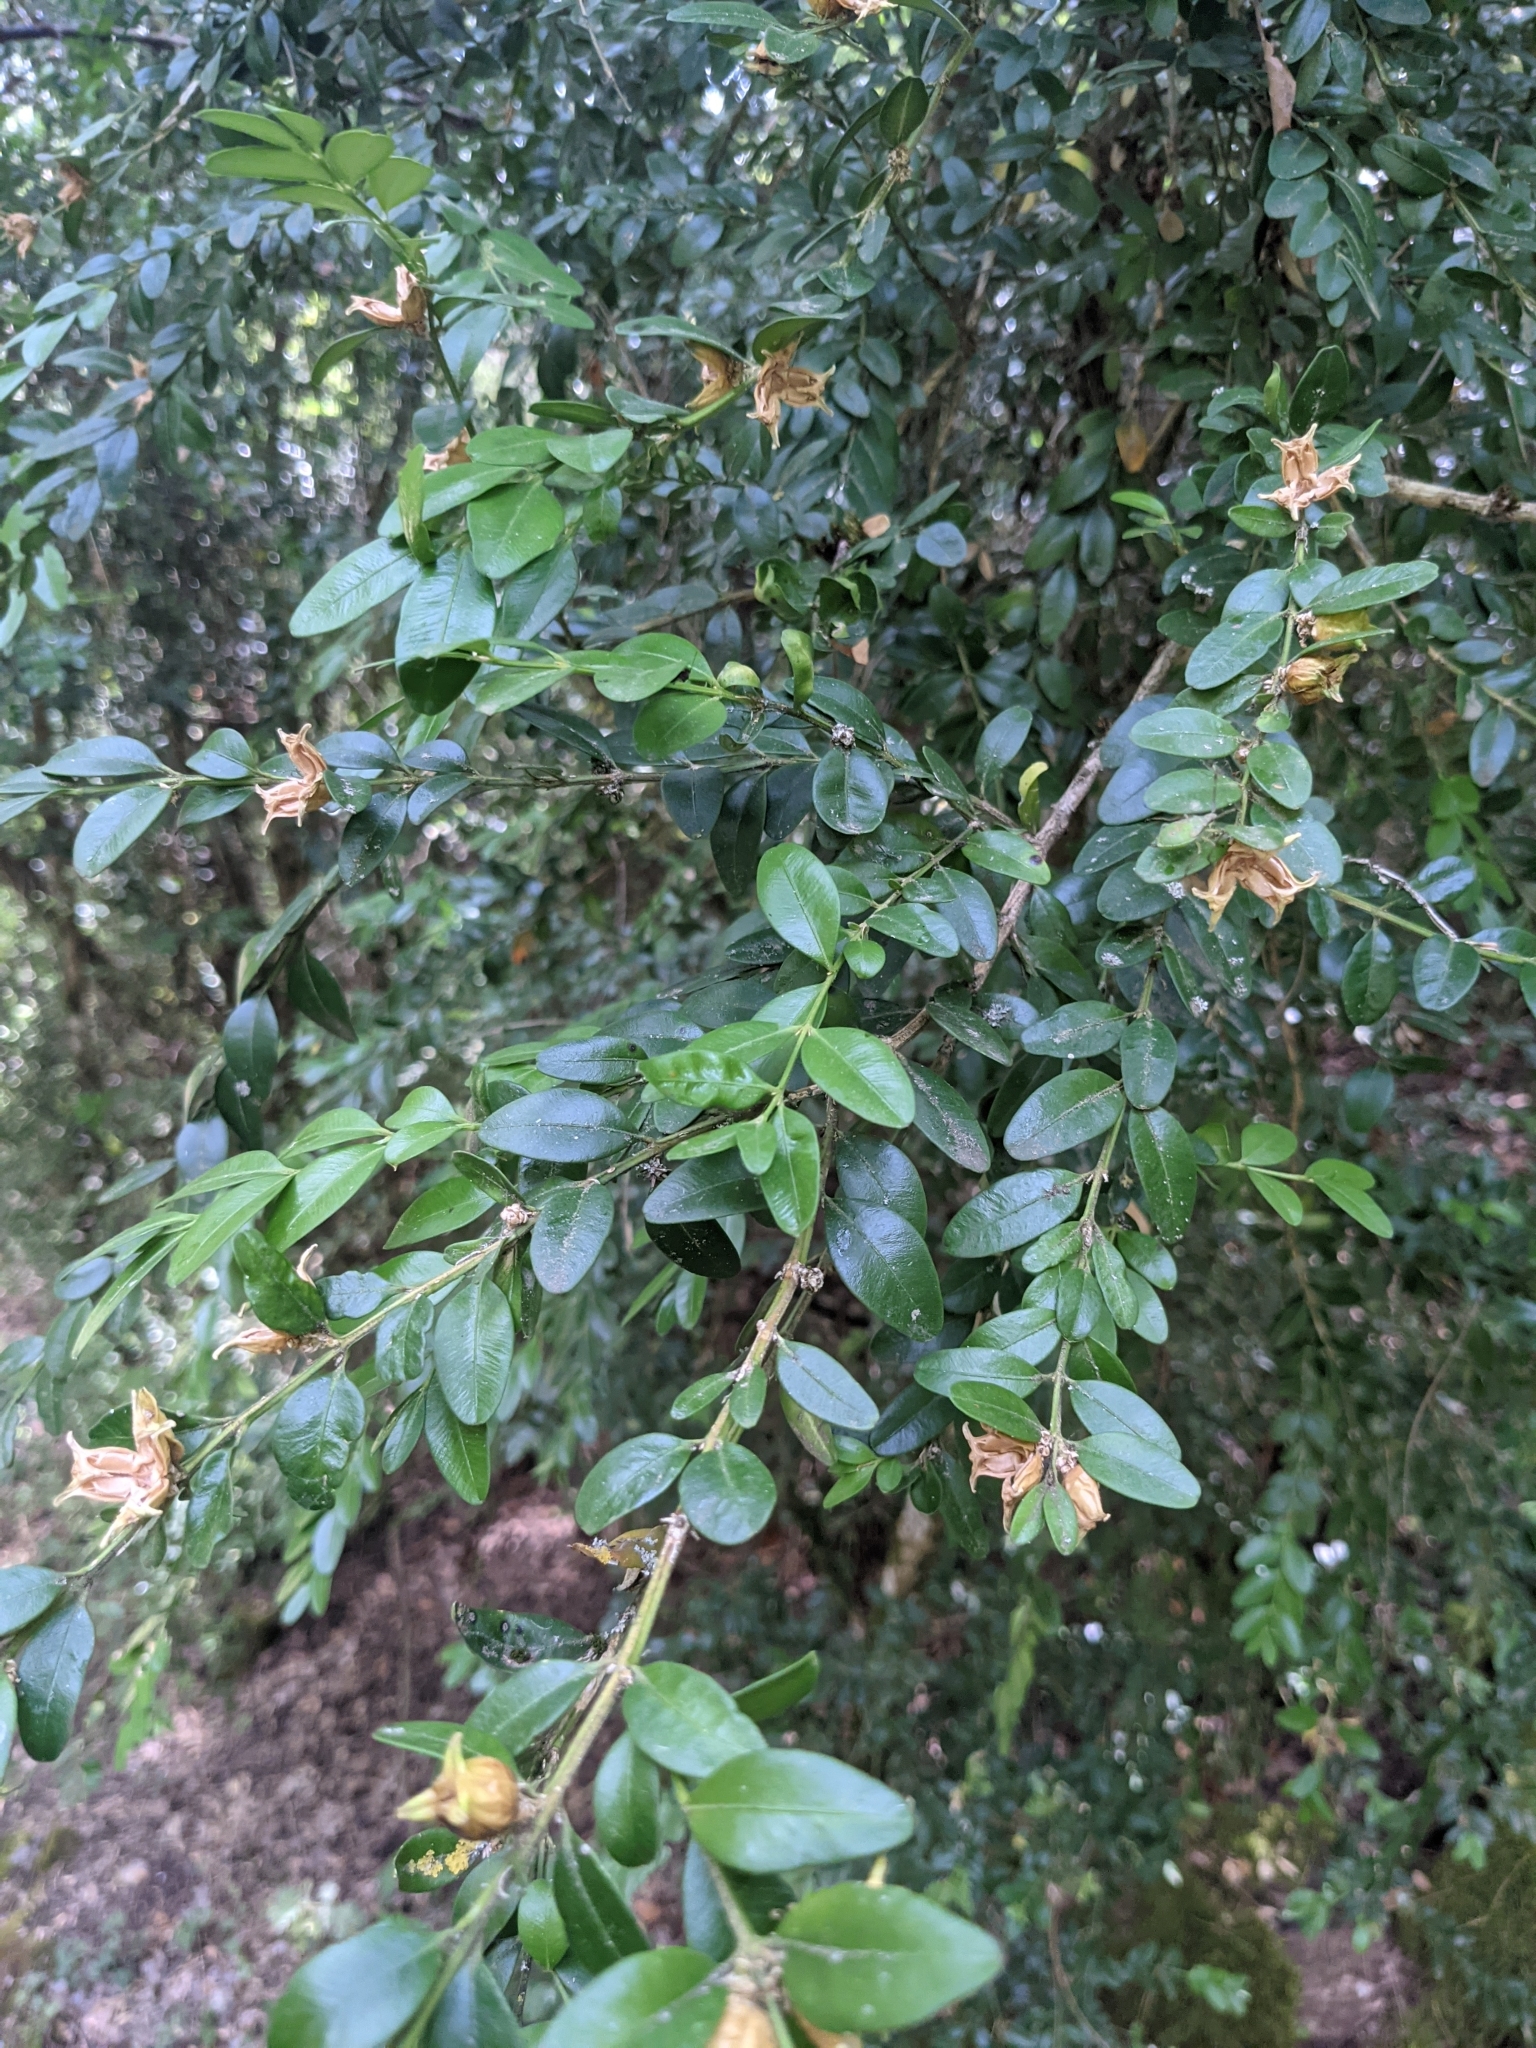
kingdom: Plantae
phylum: Tracheophyta
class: Magnoliopsida
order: Buxales
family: Buxaceae
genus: Buxus
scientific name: Buxus sempervirens
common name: Box
